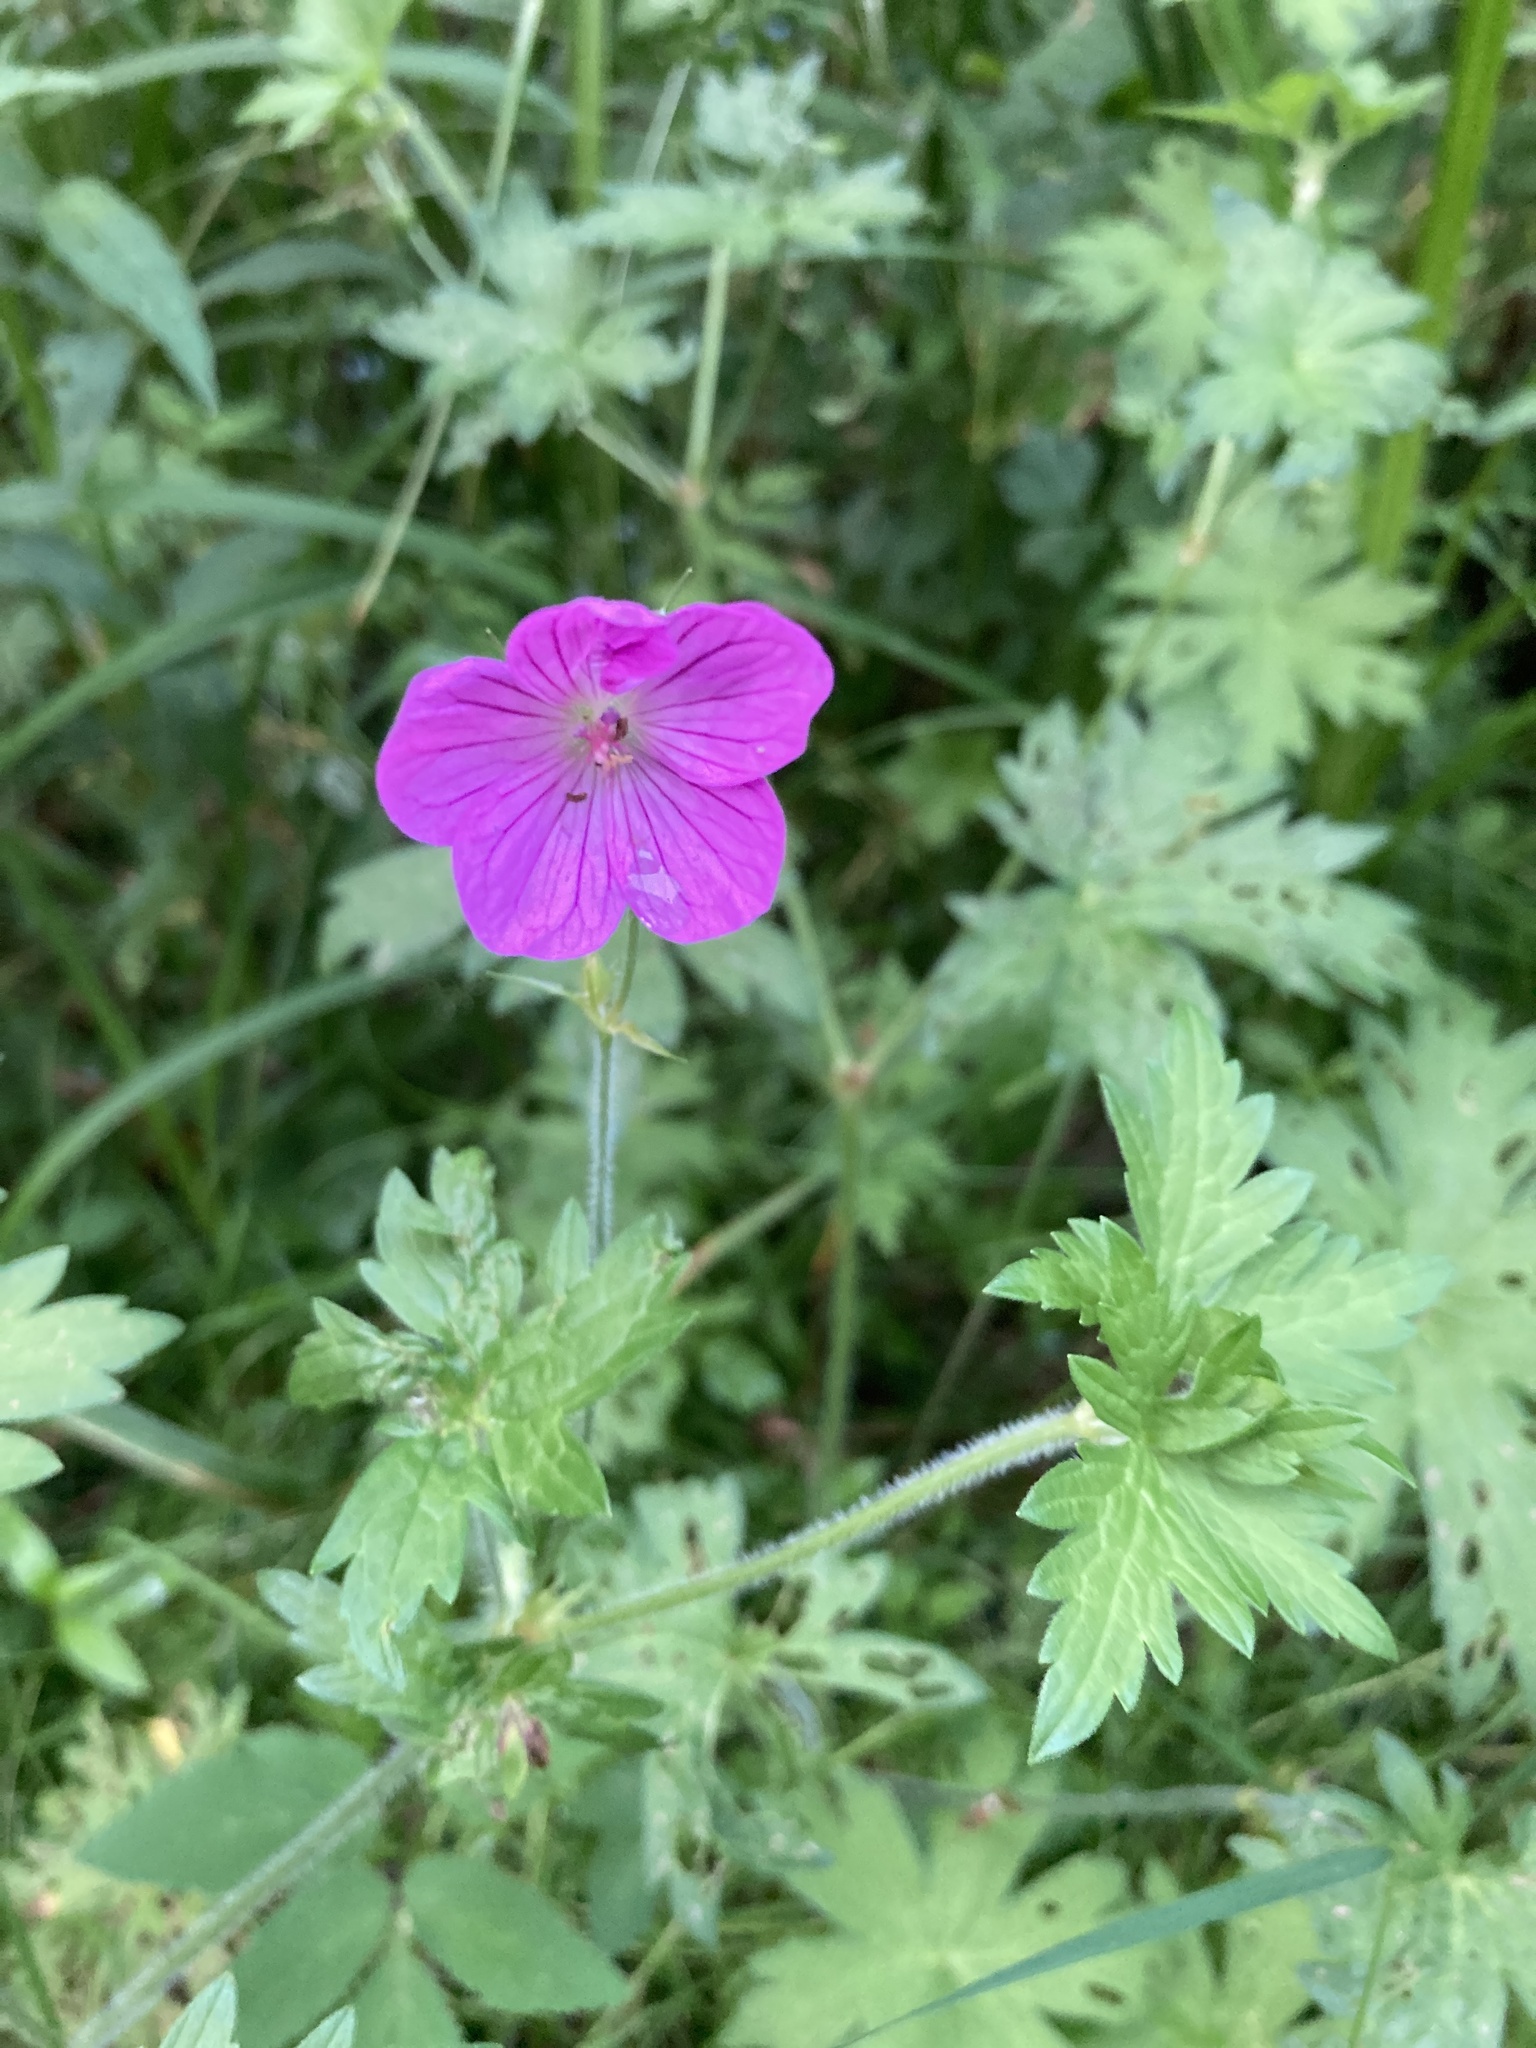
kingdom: Plantae
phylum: Tracheophyta
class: Magnoliopsida
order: Geraniales
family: Geraniaceae
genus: Geranium
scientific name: Geranium palustre
